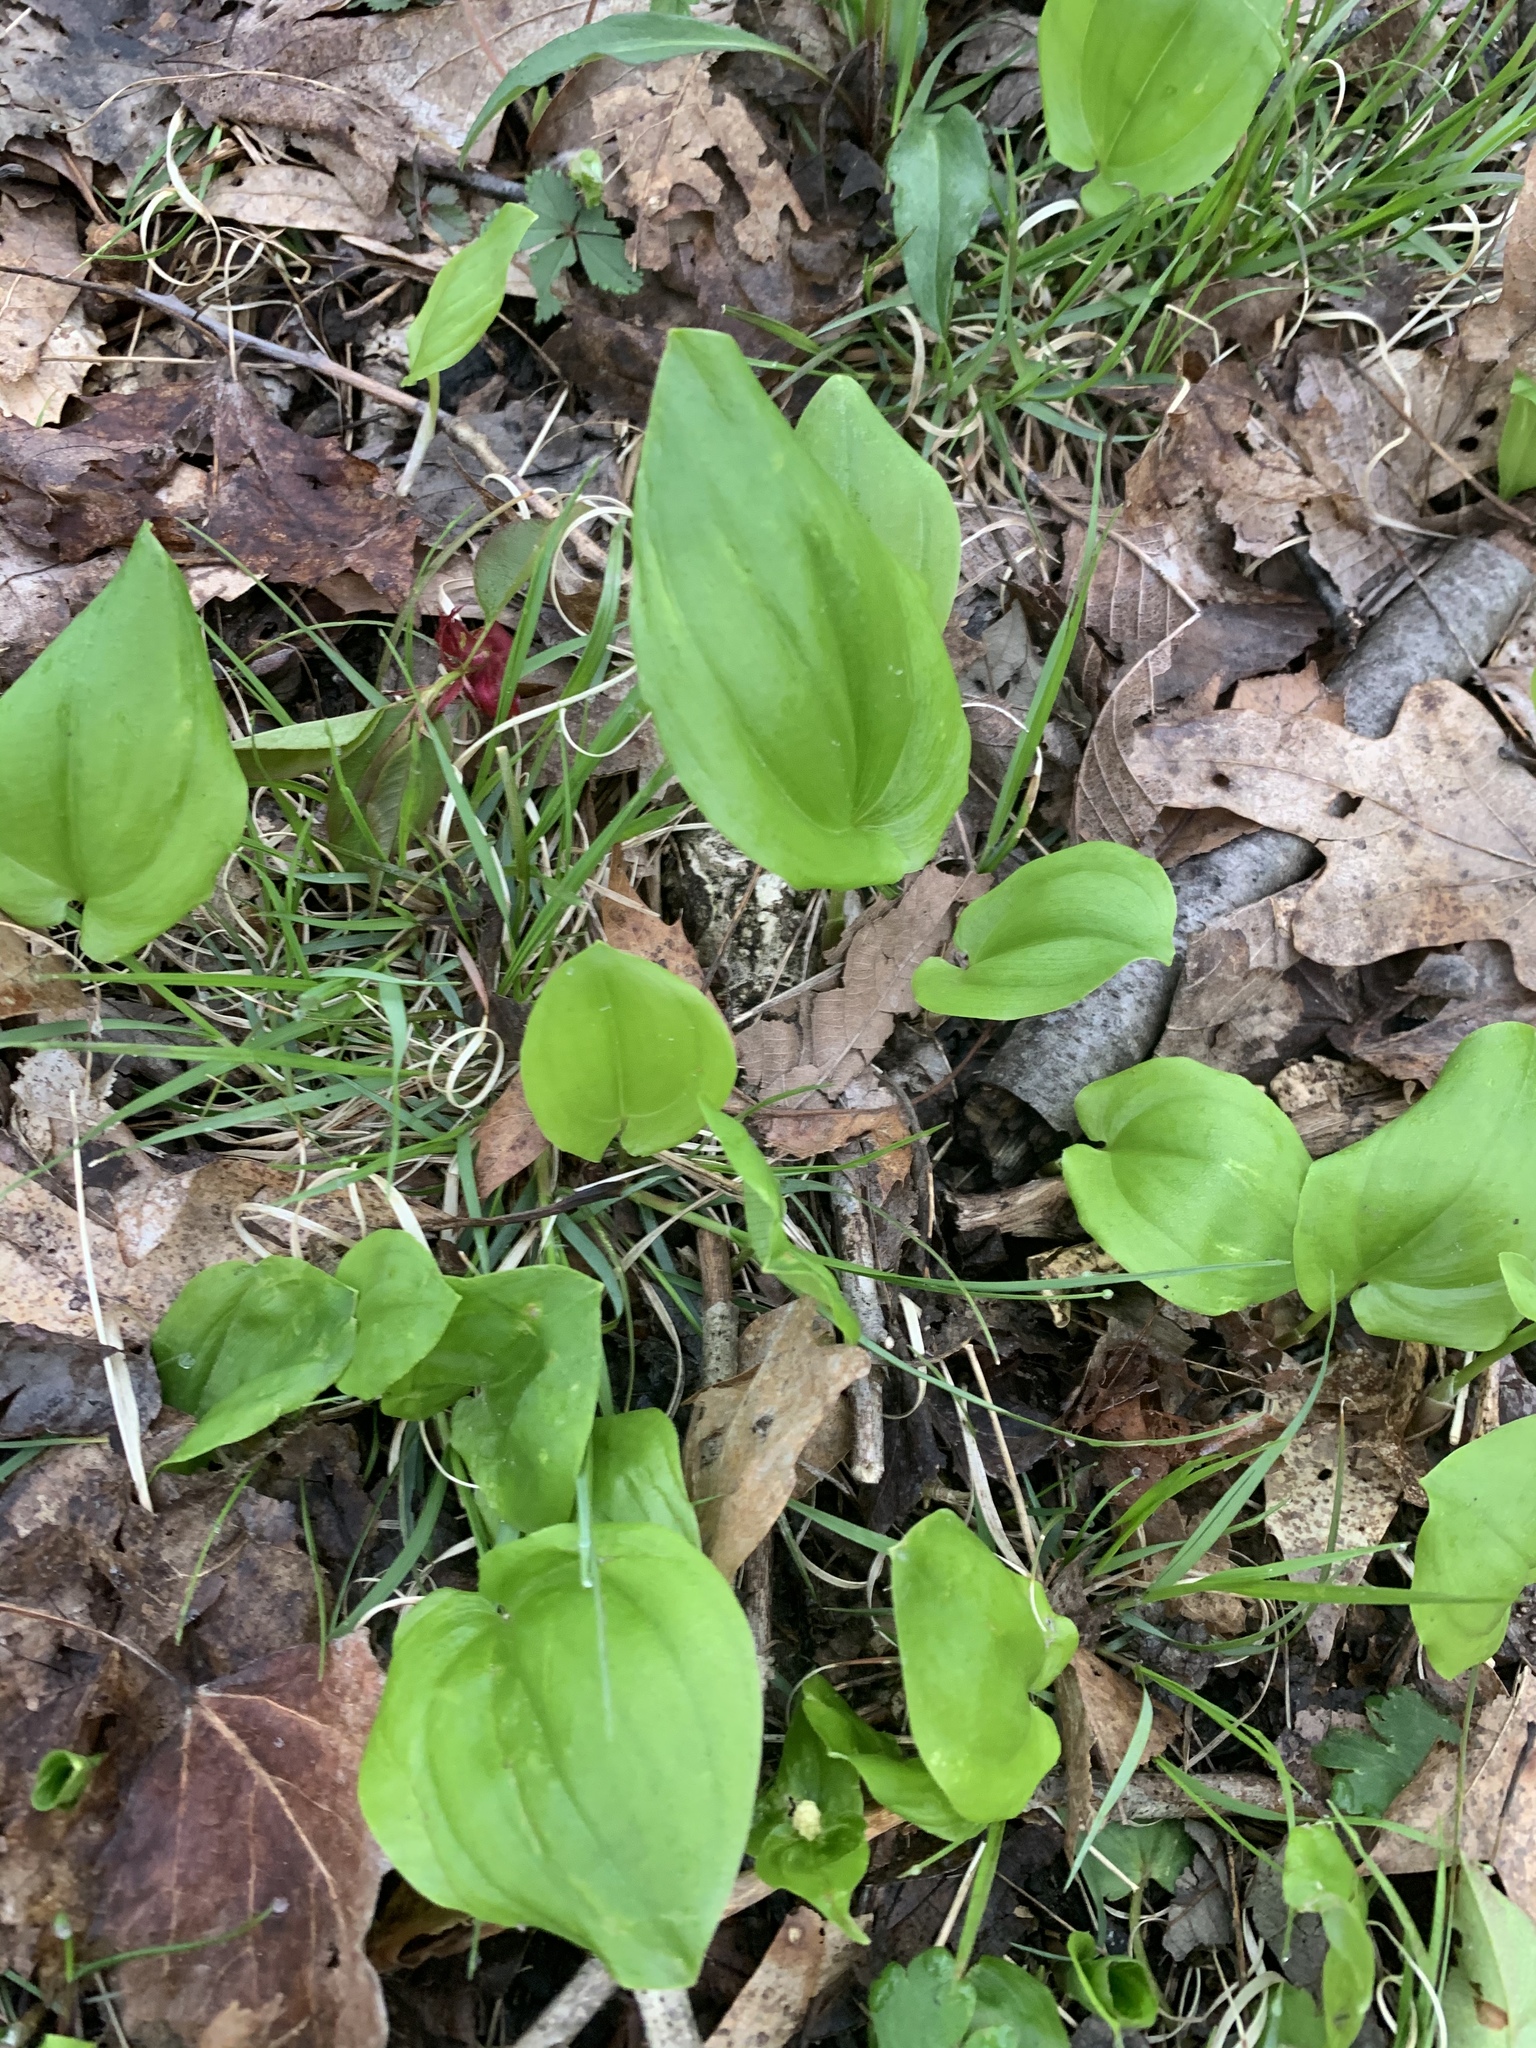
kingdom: Plantae
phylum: Tracheophyta
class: Liliopsida
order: Asparagales
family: Asparagaceae
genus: Maianthemum
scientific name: Maianthemum canadense
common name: False lily-of-the-valley
